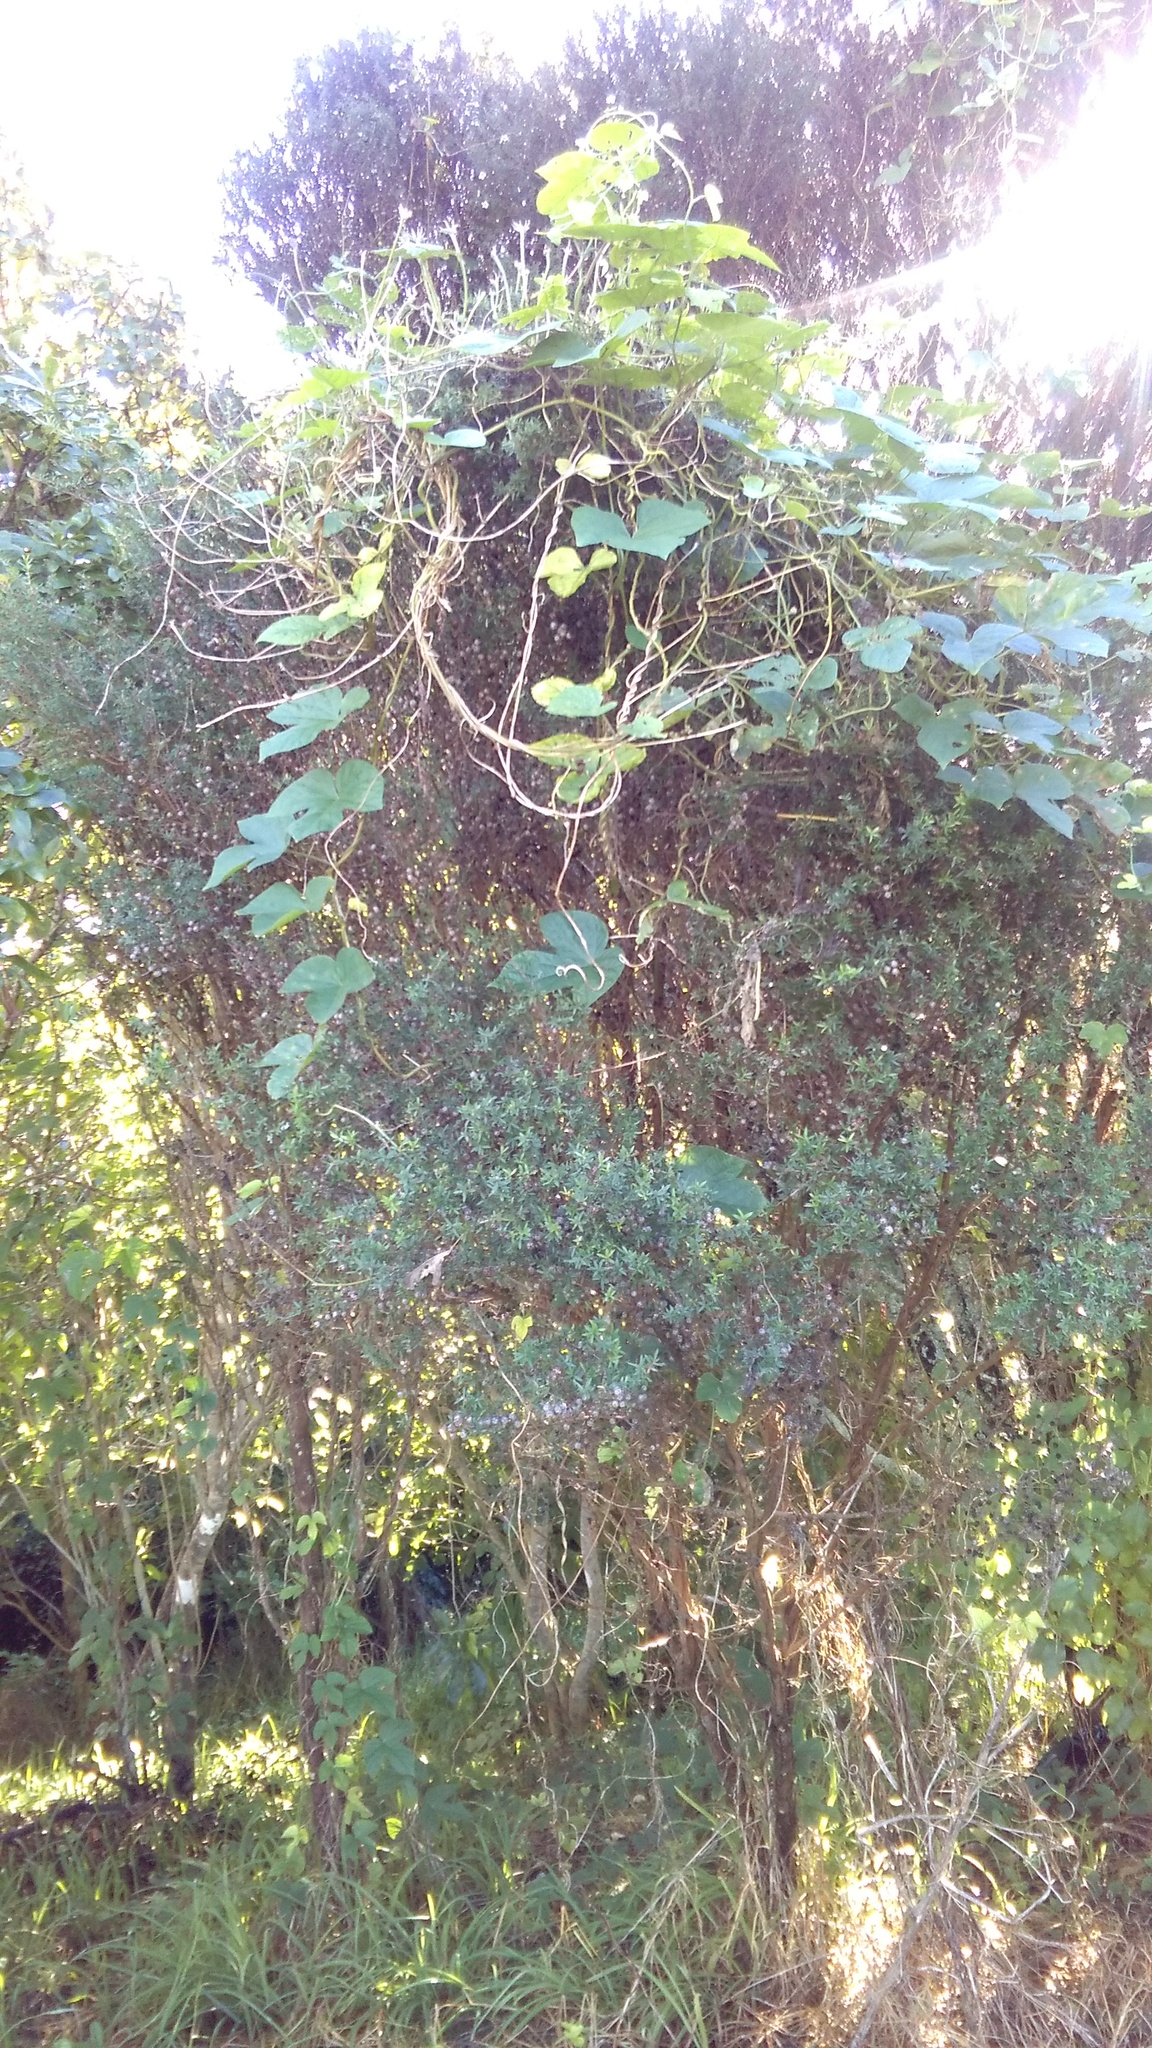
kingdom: Plantae
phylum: Tracheophyta
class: Magnoliopsida
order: Solanales
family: Convolvulaceae
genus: Ipomoea
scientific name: Ipomoea indica
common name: Blue dawnflower
